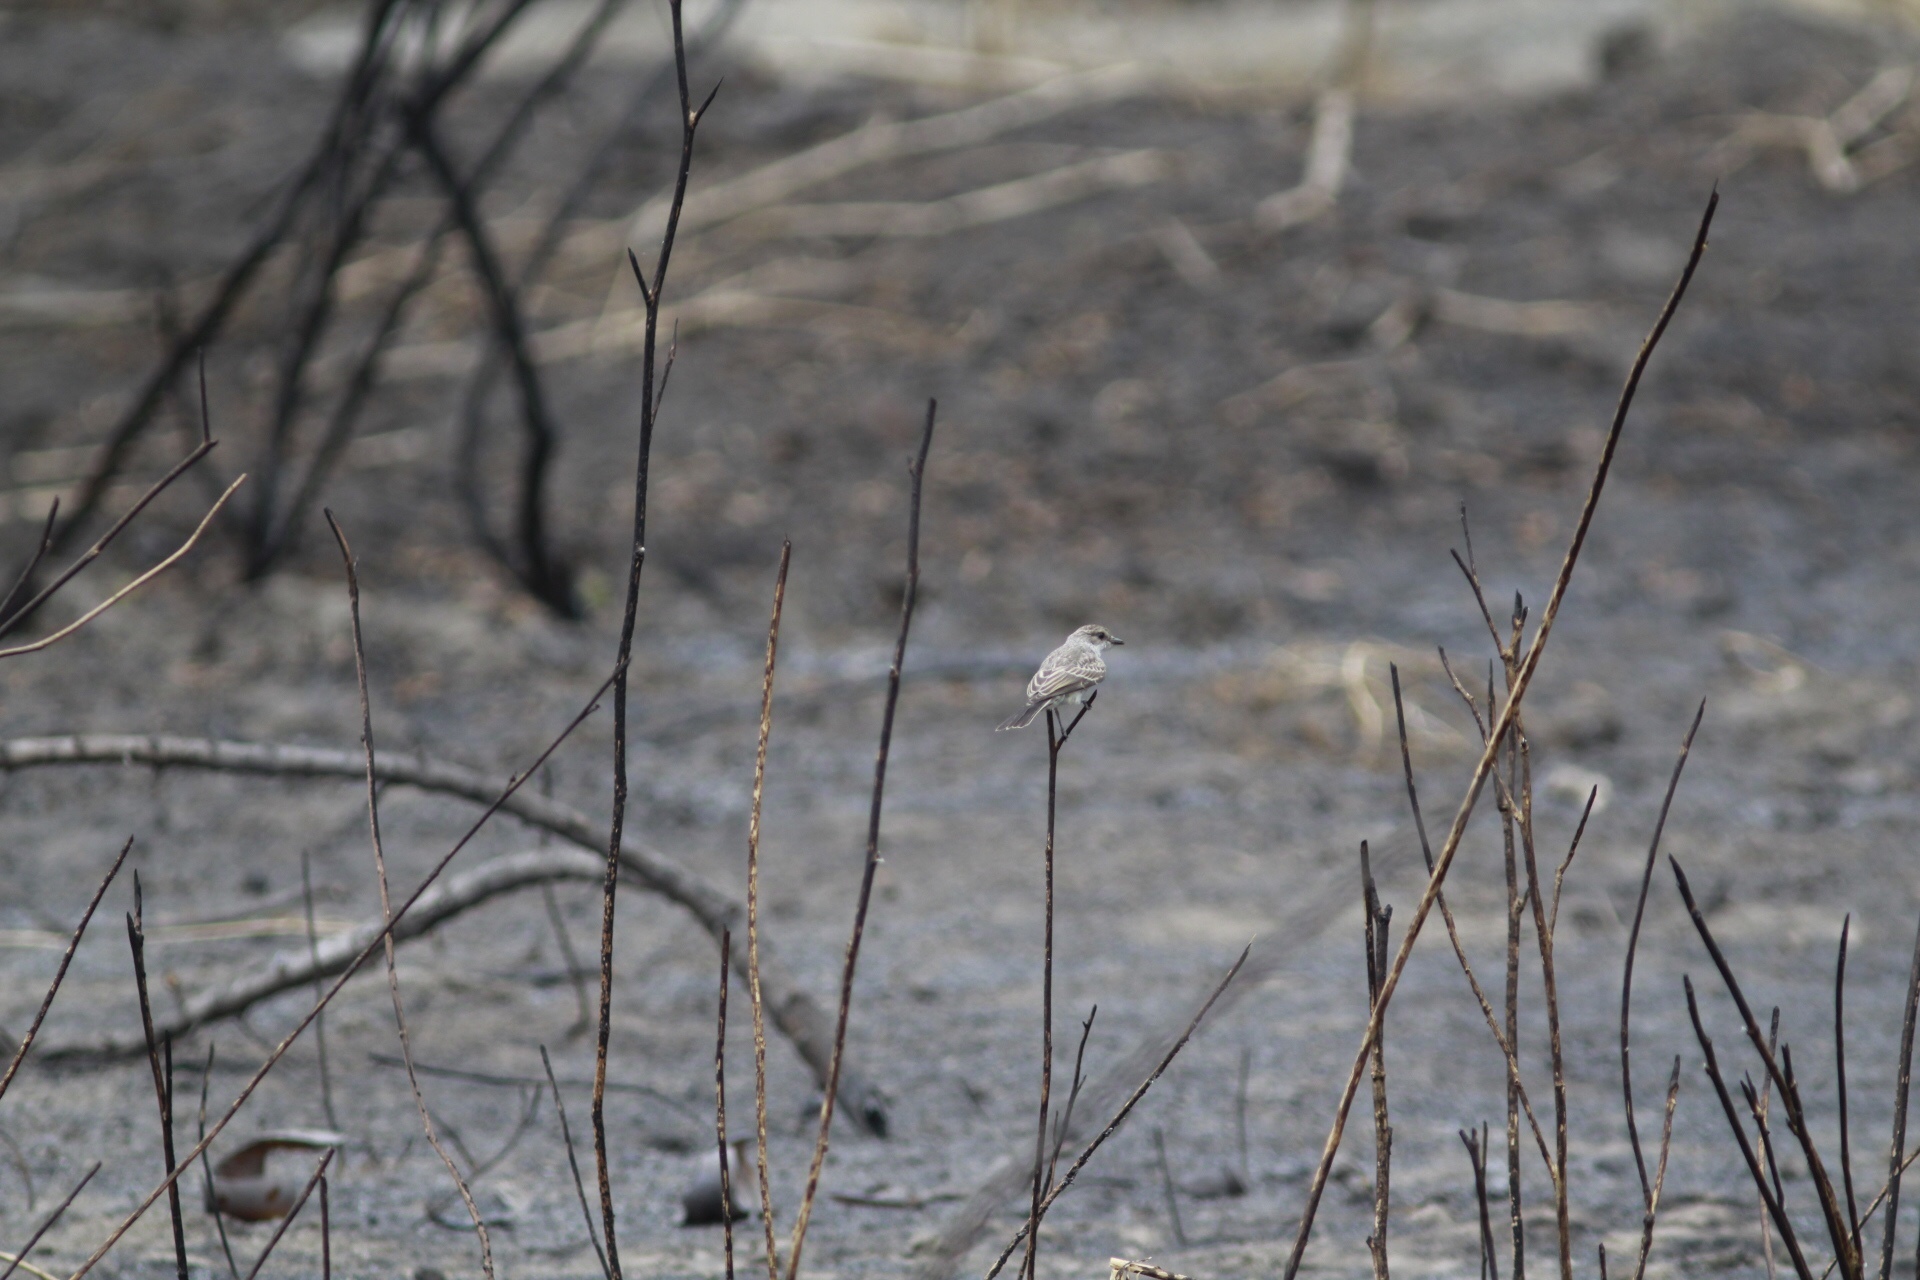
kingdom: Animalia
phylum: Chordata
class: Aves
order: Passeriformes
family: Tyrannidae
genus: Pyrocephalus
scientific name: Pyrocephalus rubinus
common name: Vermilion flycatcher
